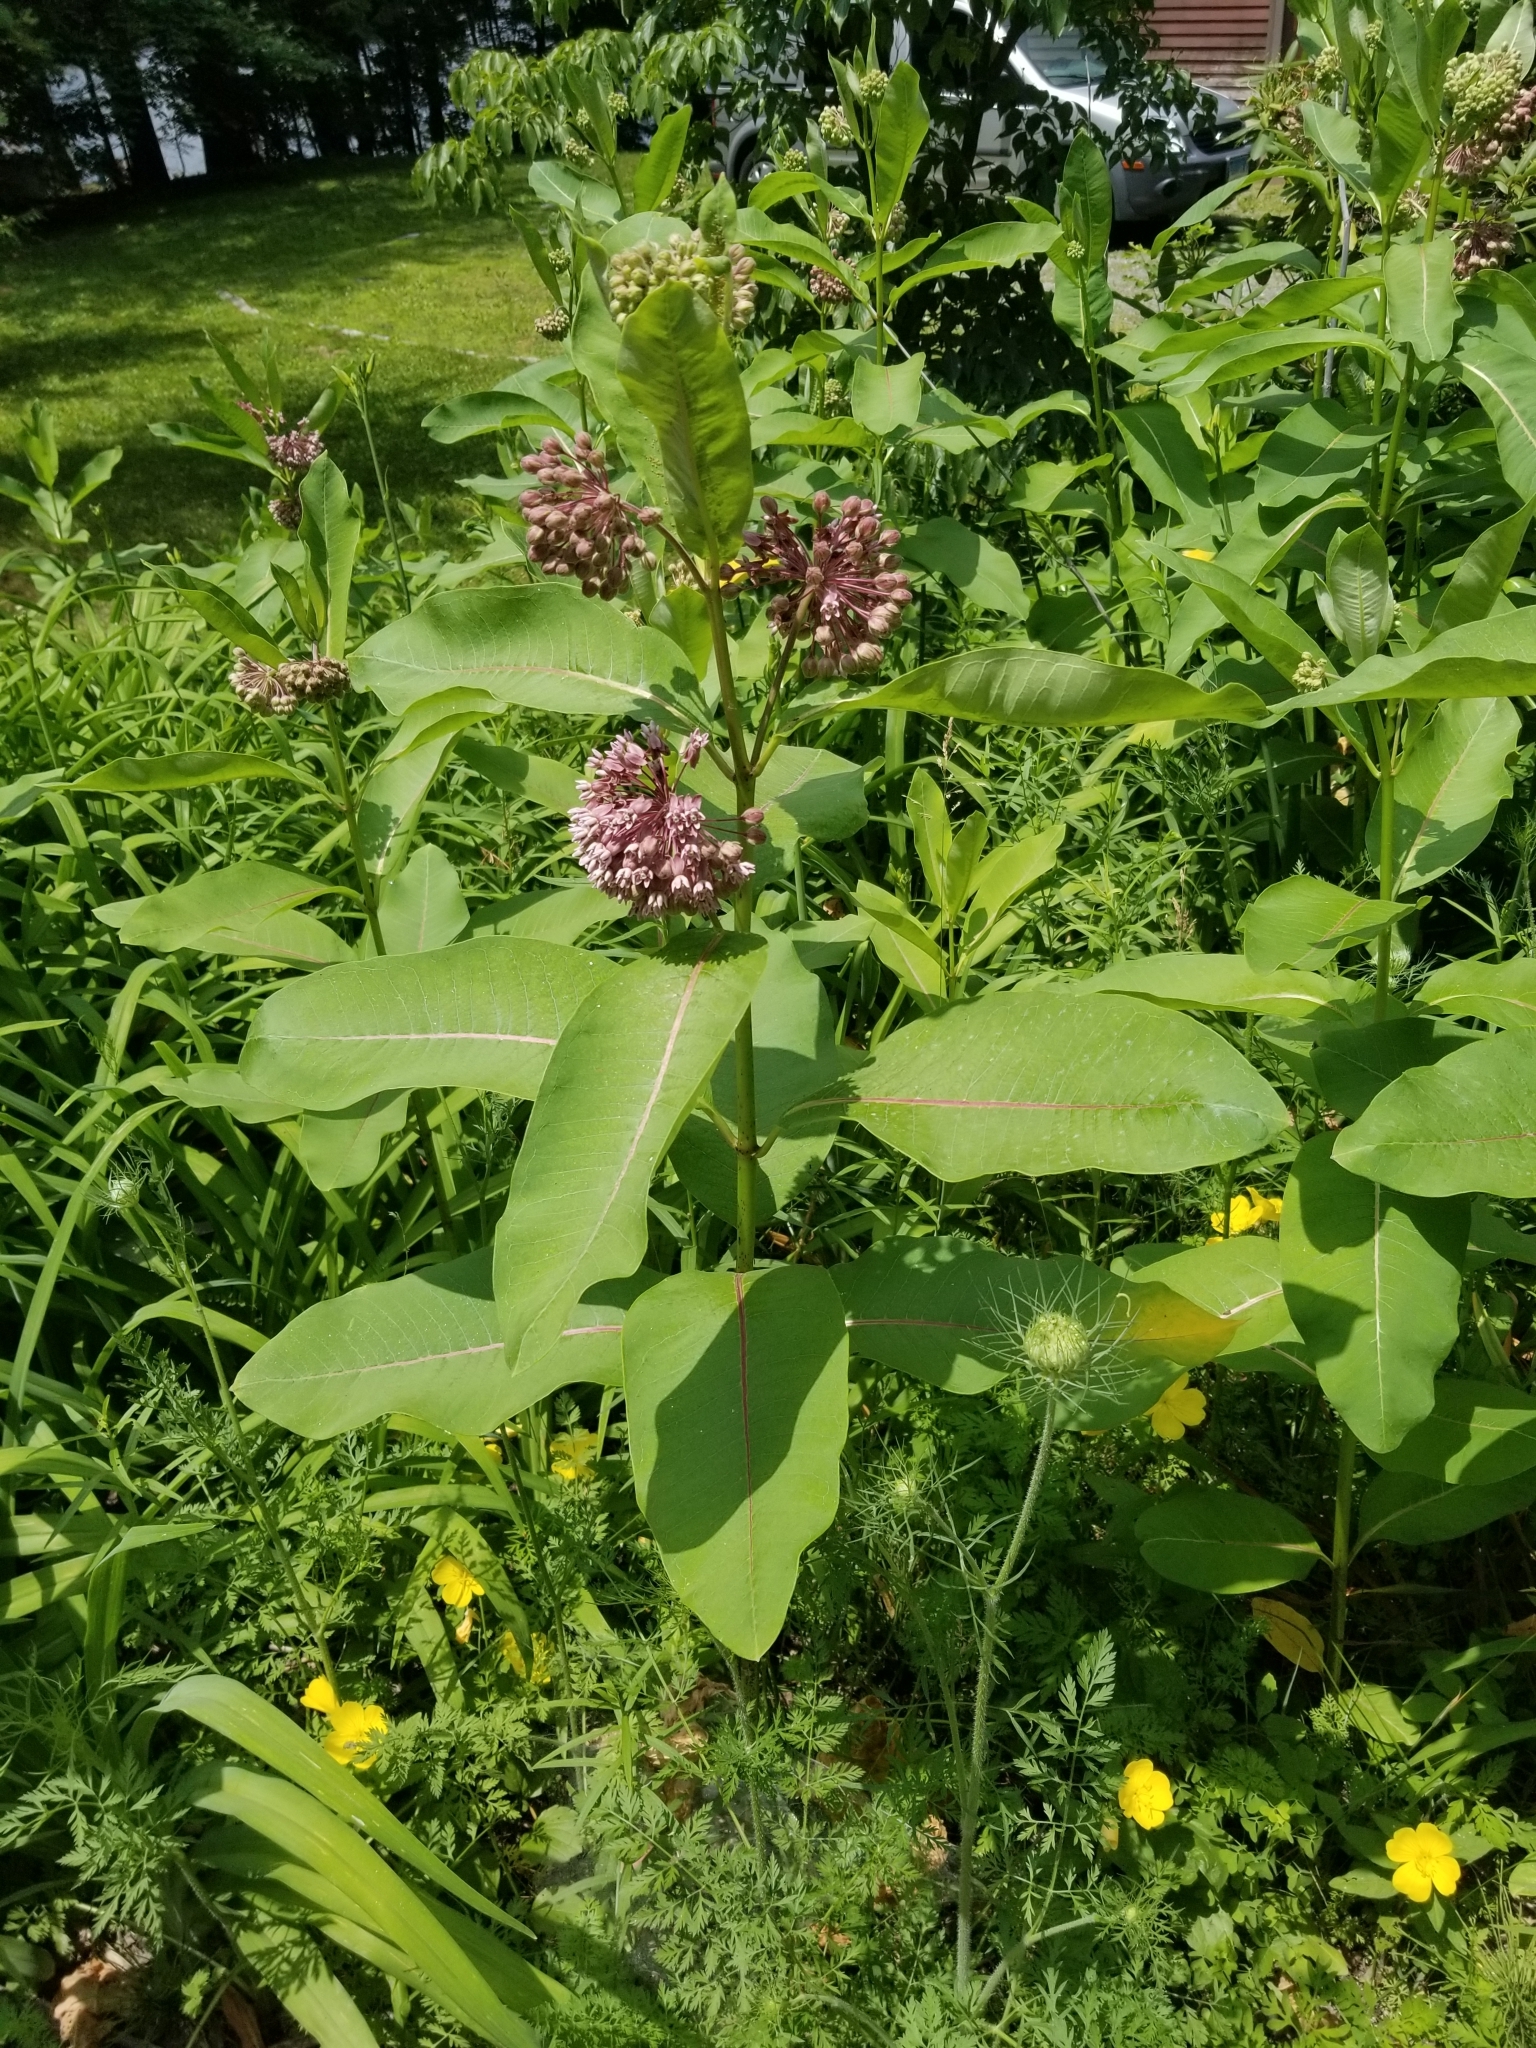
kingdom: Plantae
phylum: Tracheophyta
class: Magnoliopsida
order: Gentianales
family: Apocynaceae
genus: Asclepias
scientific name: Asclepias syriaca
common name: Common milkweed
